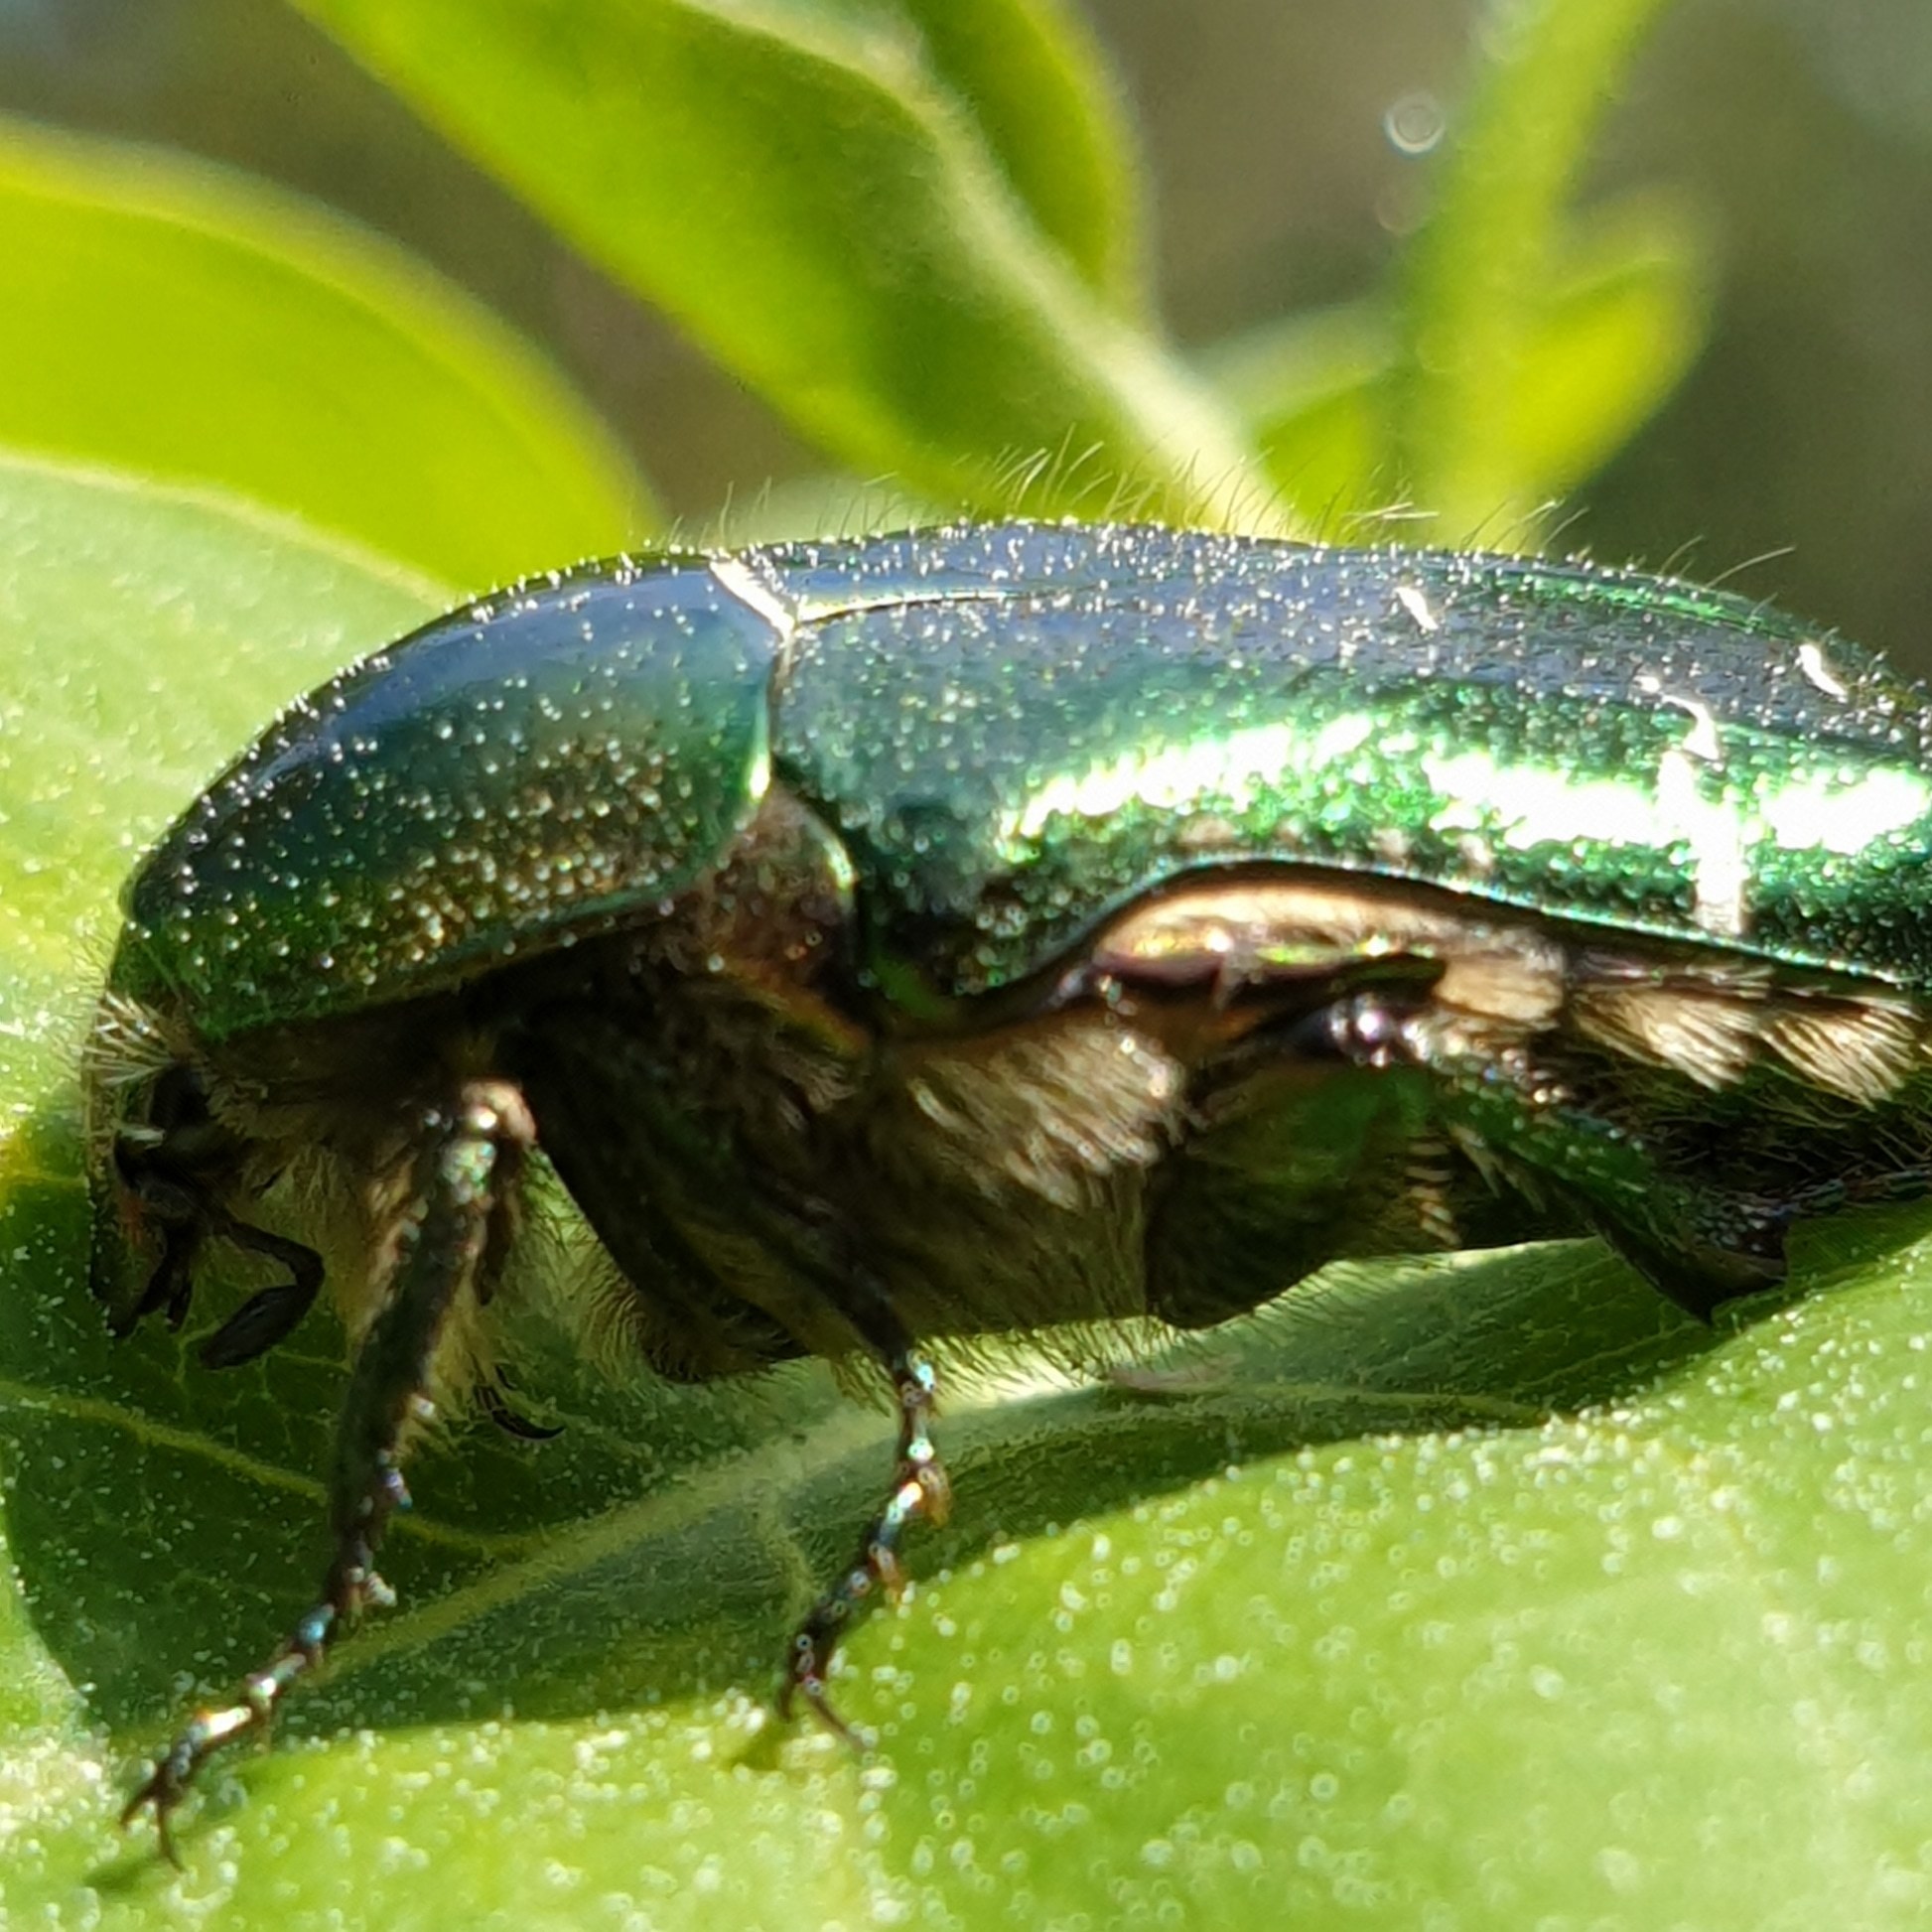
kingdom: Animalia
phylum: Arthropoda
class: Insecta
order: Coleoptera
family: Scarabaeidae
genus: Cetonia
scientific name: Cetonia aurata
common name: Rose chafer
